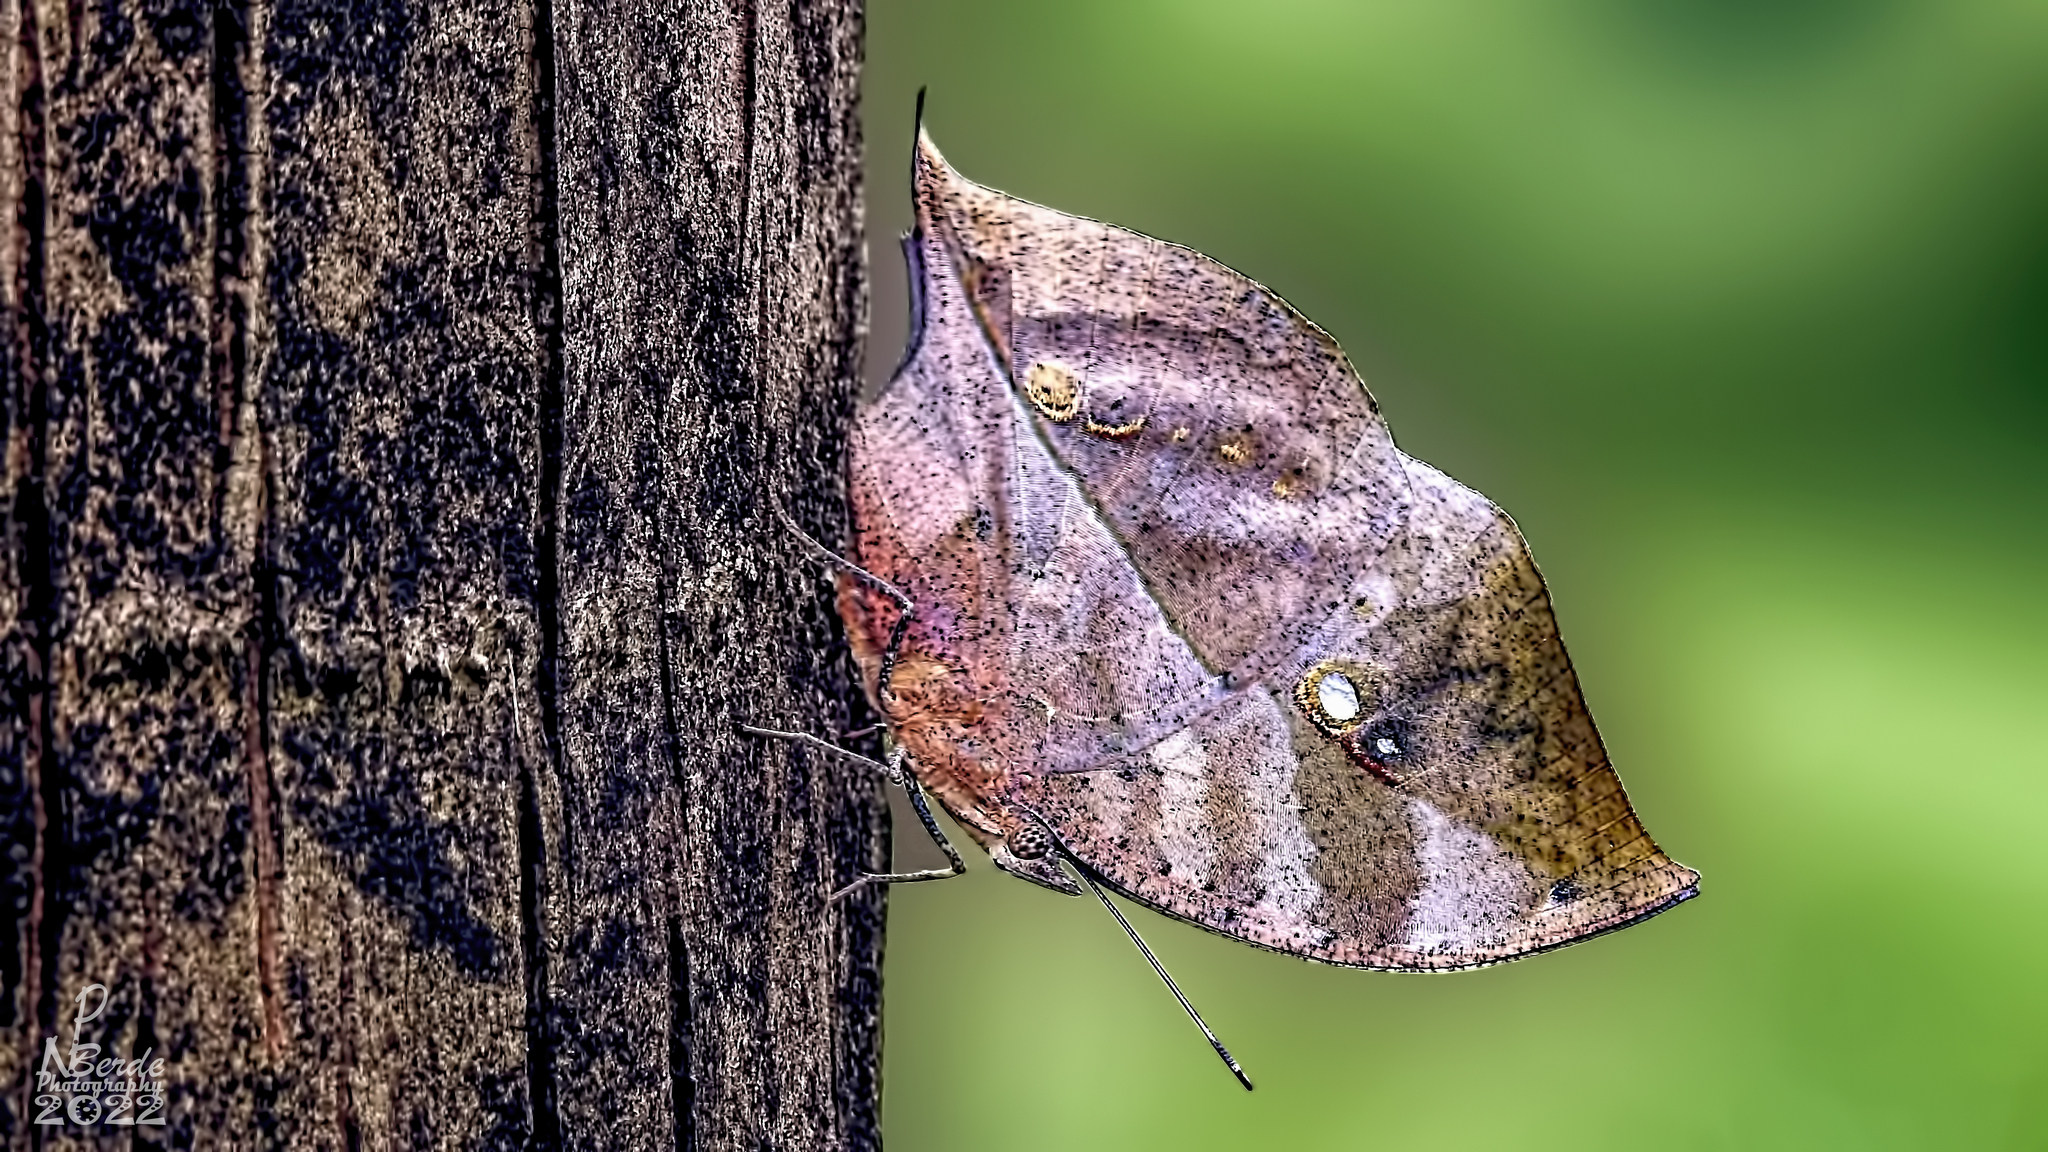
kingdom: Animalia
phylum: Arthropoda
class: Insecta
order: Lepidoptera
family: Nymphalidae
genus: Kallima
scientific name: Kallima horsfieldii
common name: Sahyadri blue oakleaf
